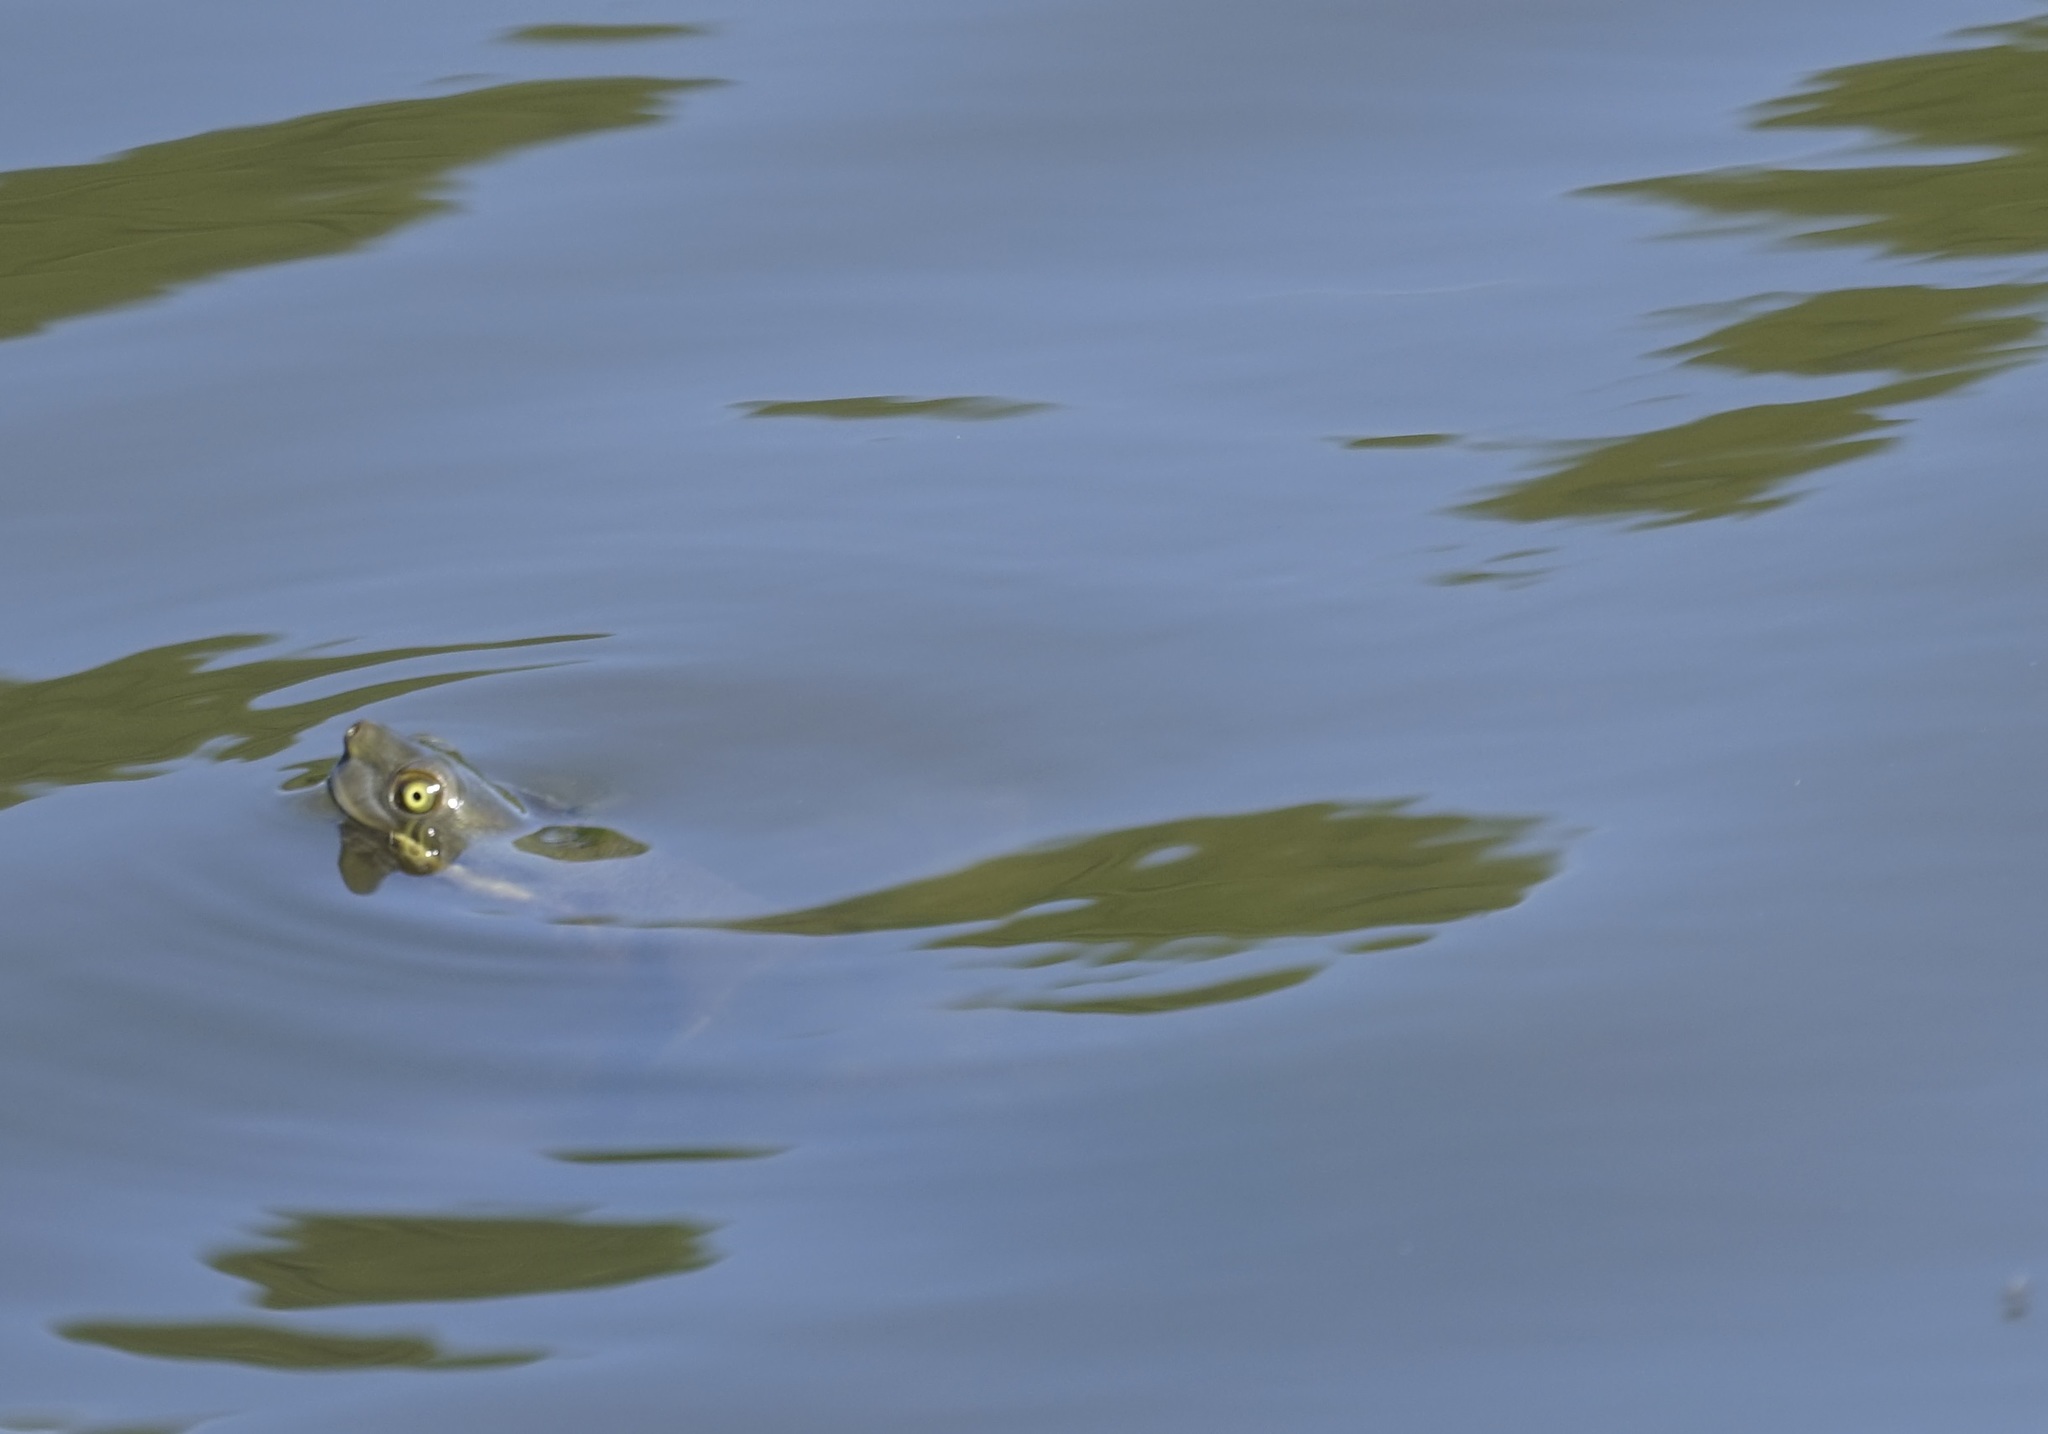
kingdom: Animalia
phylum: Chordata
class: Testudines
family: Chelidae
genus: Emydura
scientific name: Emydura macquarii
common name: Murray river turtle
